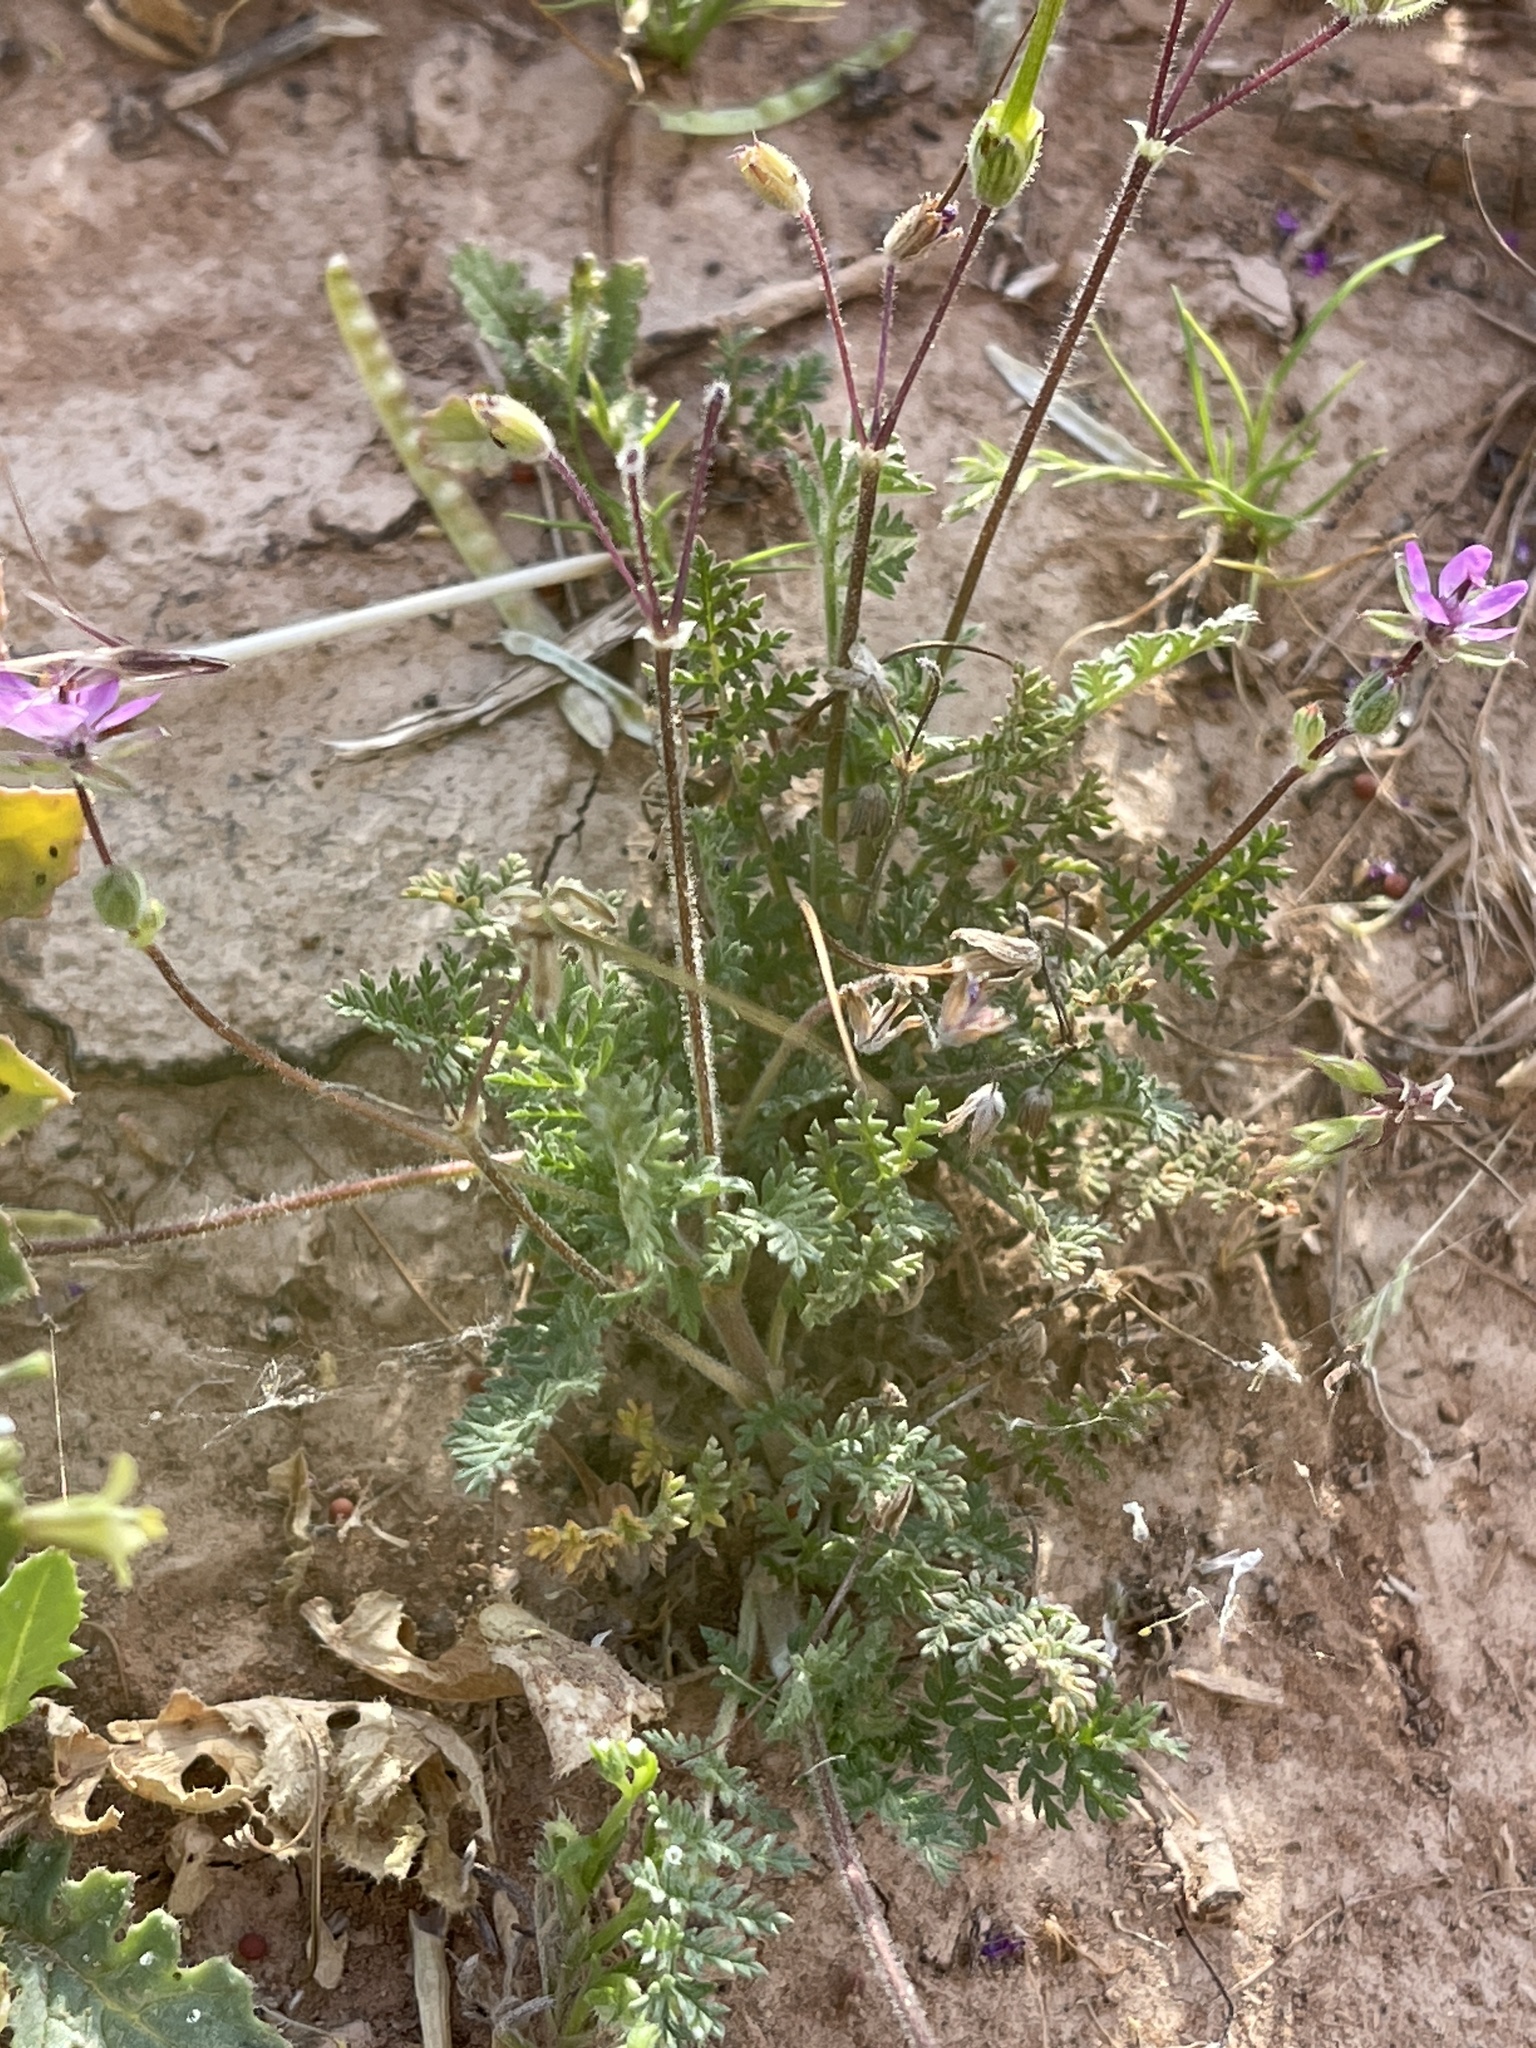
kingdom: Plantae
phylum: Tracheophyta
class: Magnoliopsida
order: Geraniales
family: Geraniaceae
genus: Erodium
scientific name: Erodium cicutarium
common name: Common stork's-bill
